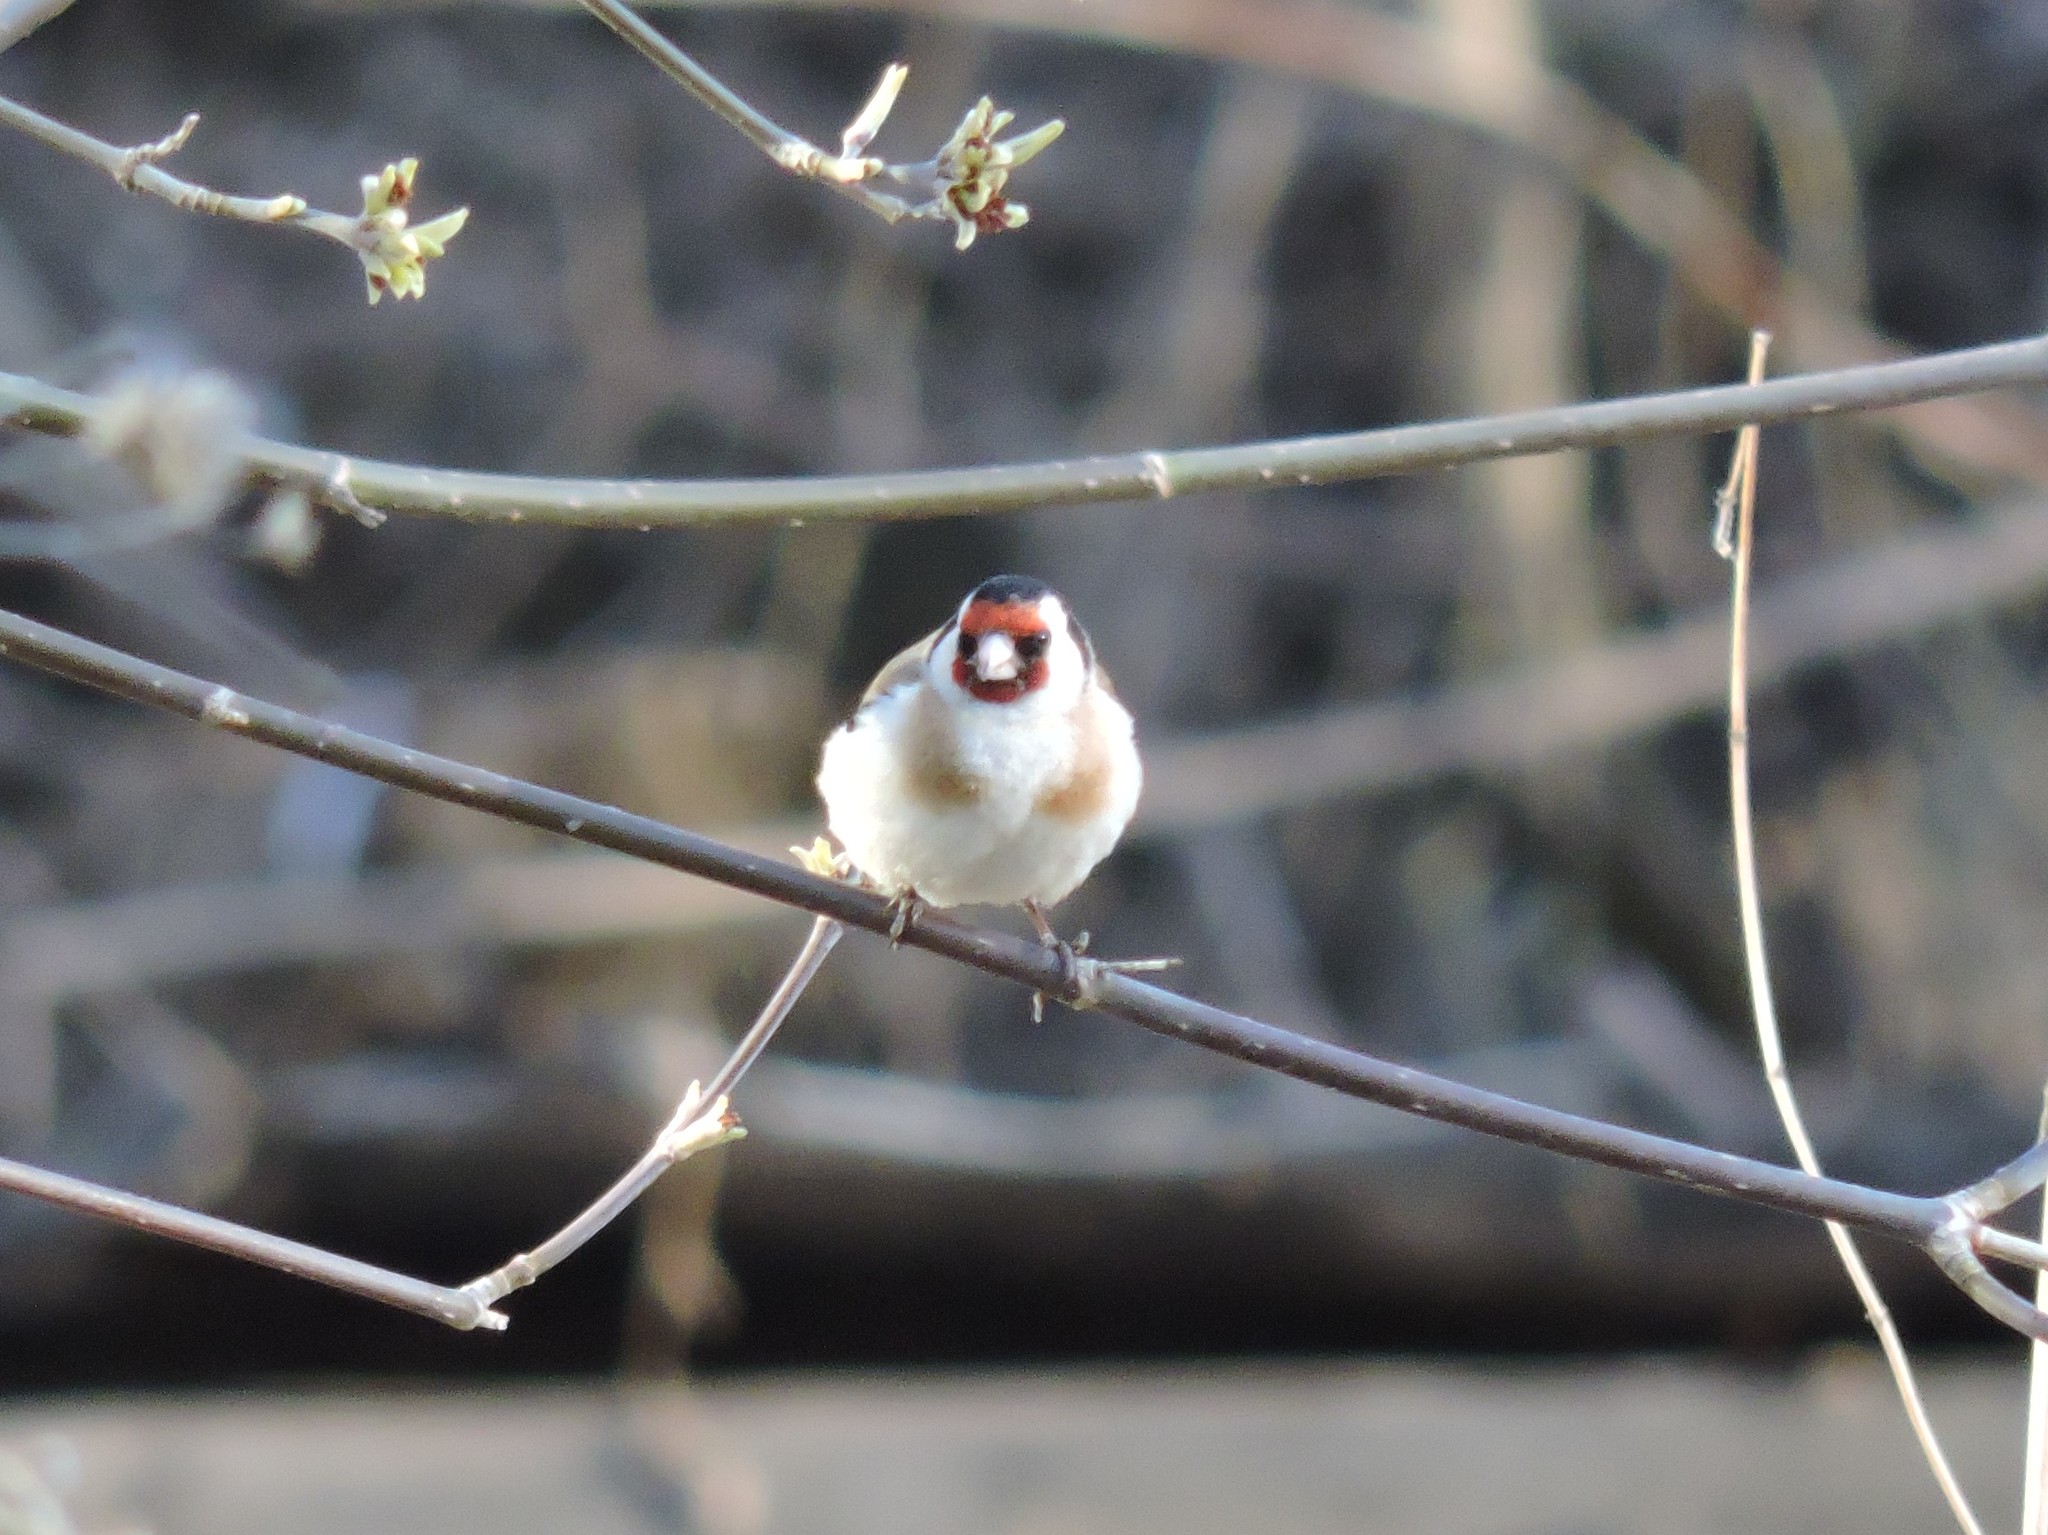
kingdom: Animalia
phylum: Chordata
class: Aves
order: Passeriformes
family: Fringillidae
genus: Carduelis
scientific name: Carduelis carduelis
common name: European goldfinch
